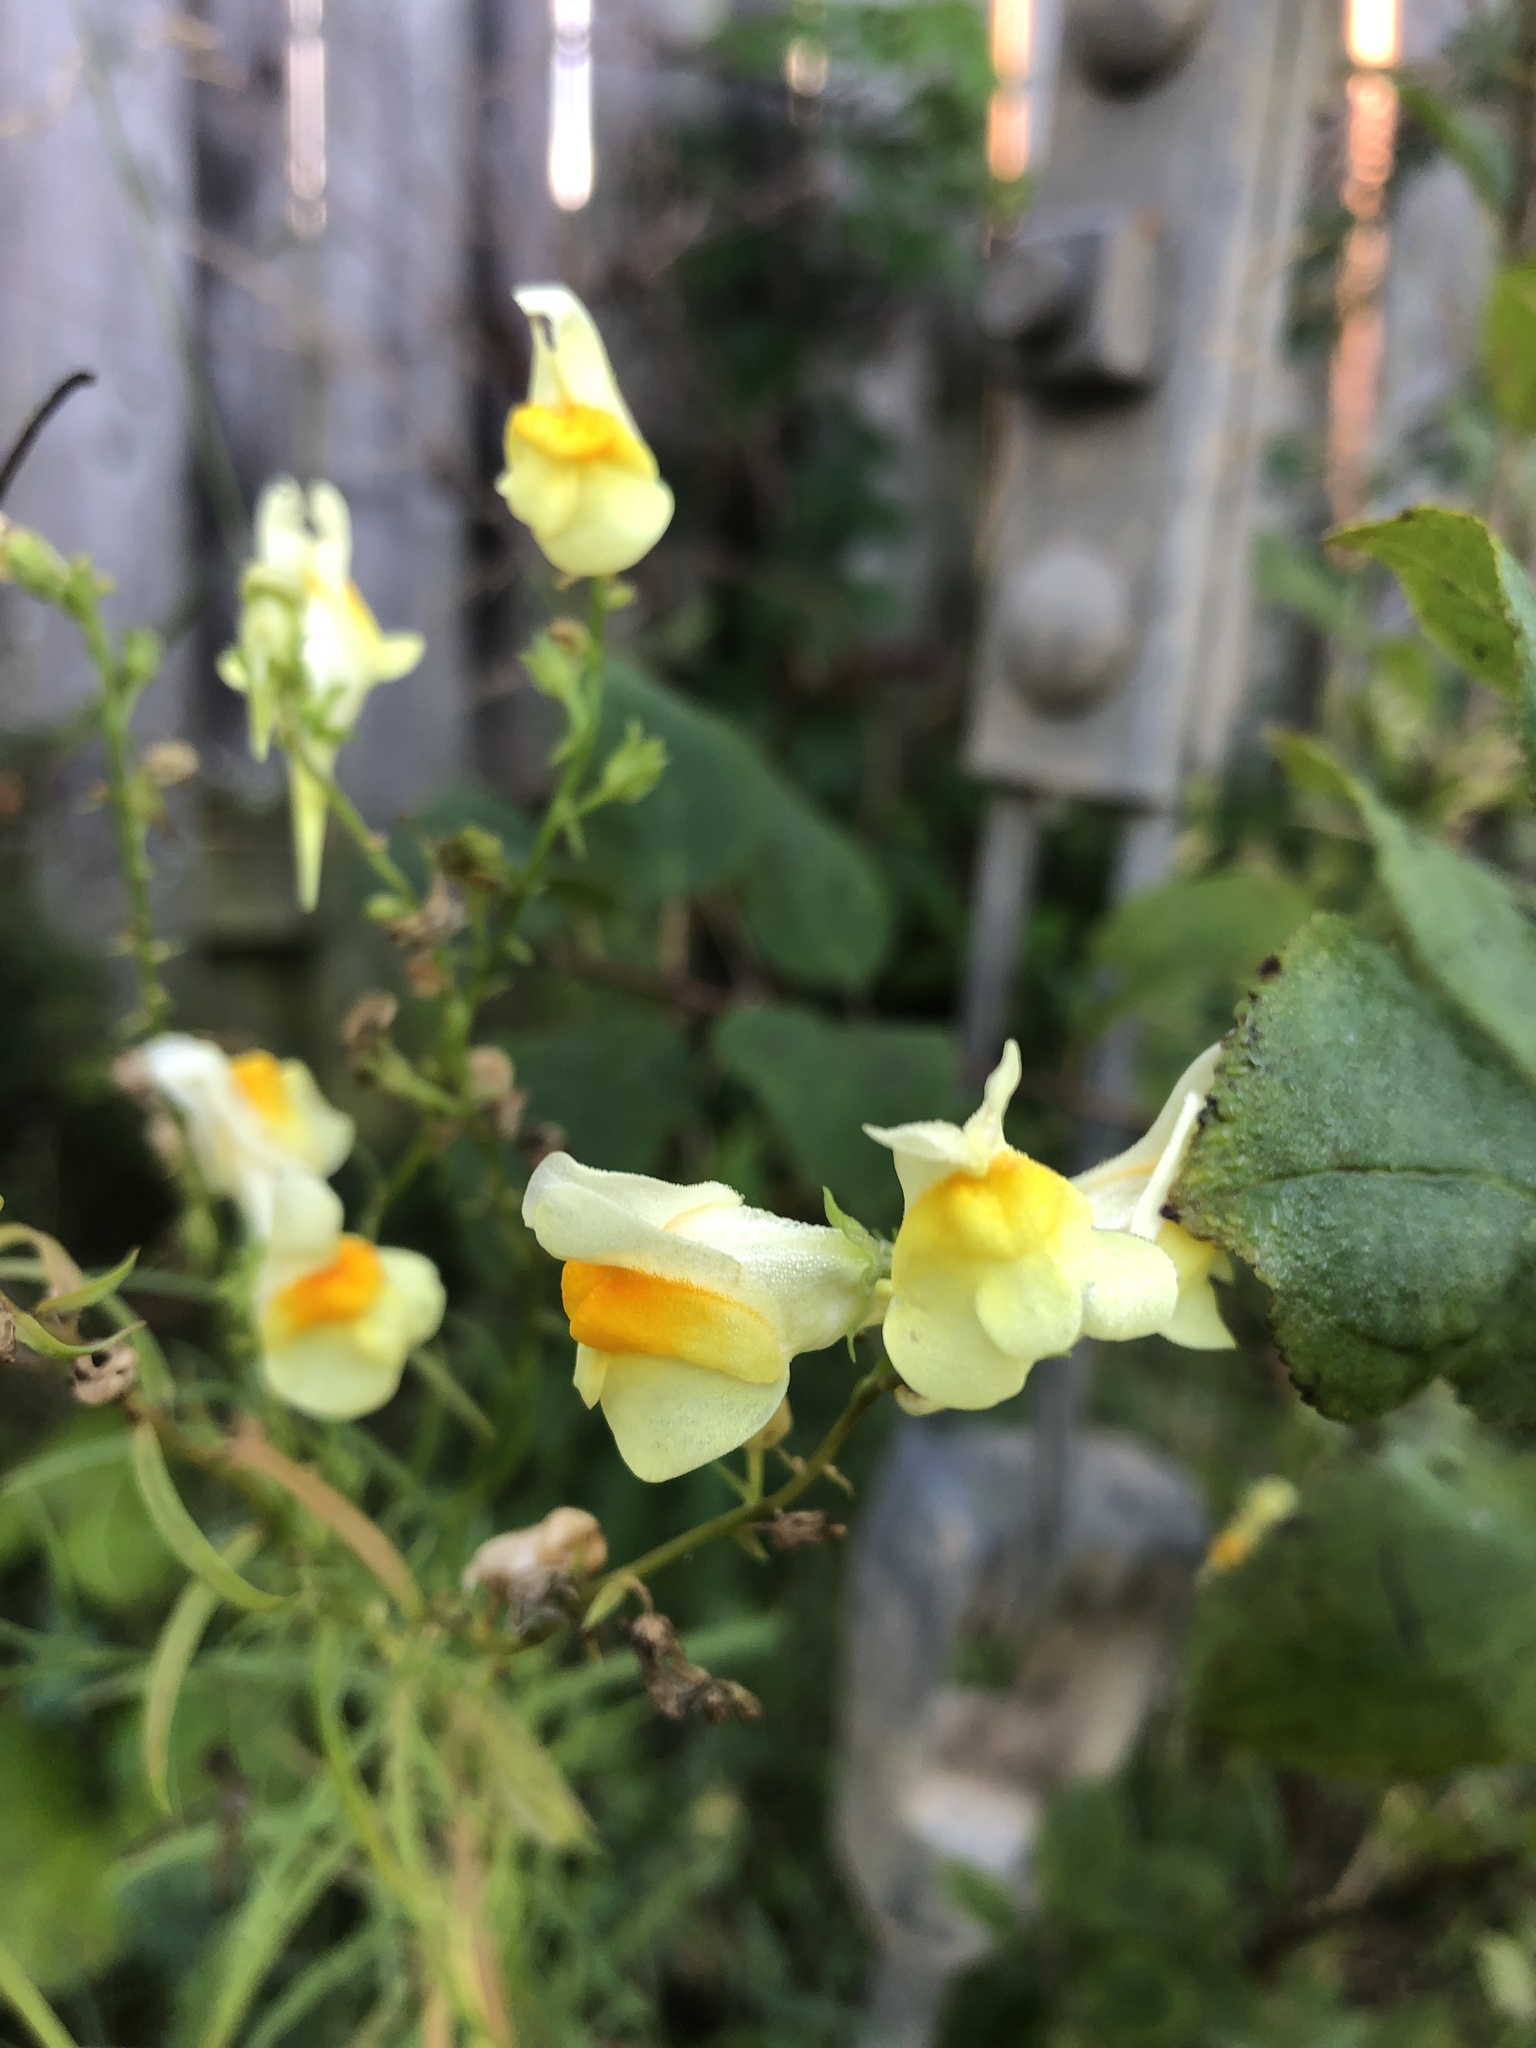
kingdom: Plantae
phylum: Tracheophyta
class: Magnoliopsida
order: Lamiales
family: Plantaginaceae
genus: Linaria
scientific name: Linaria vulgaris
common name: Butter and eggs
